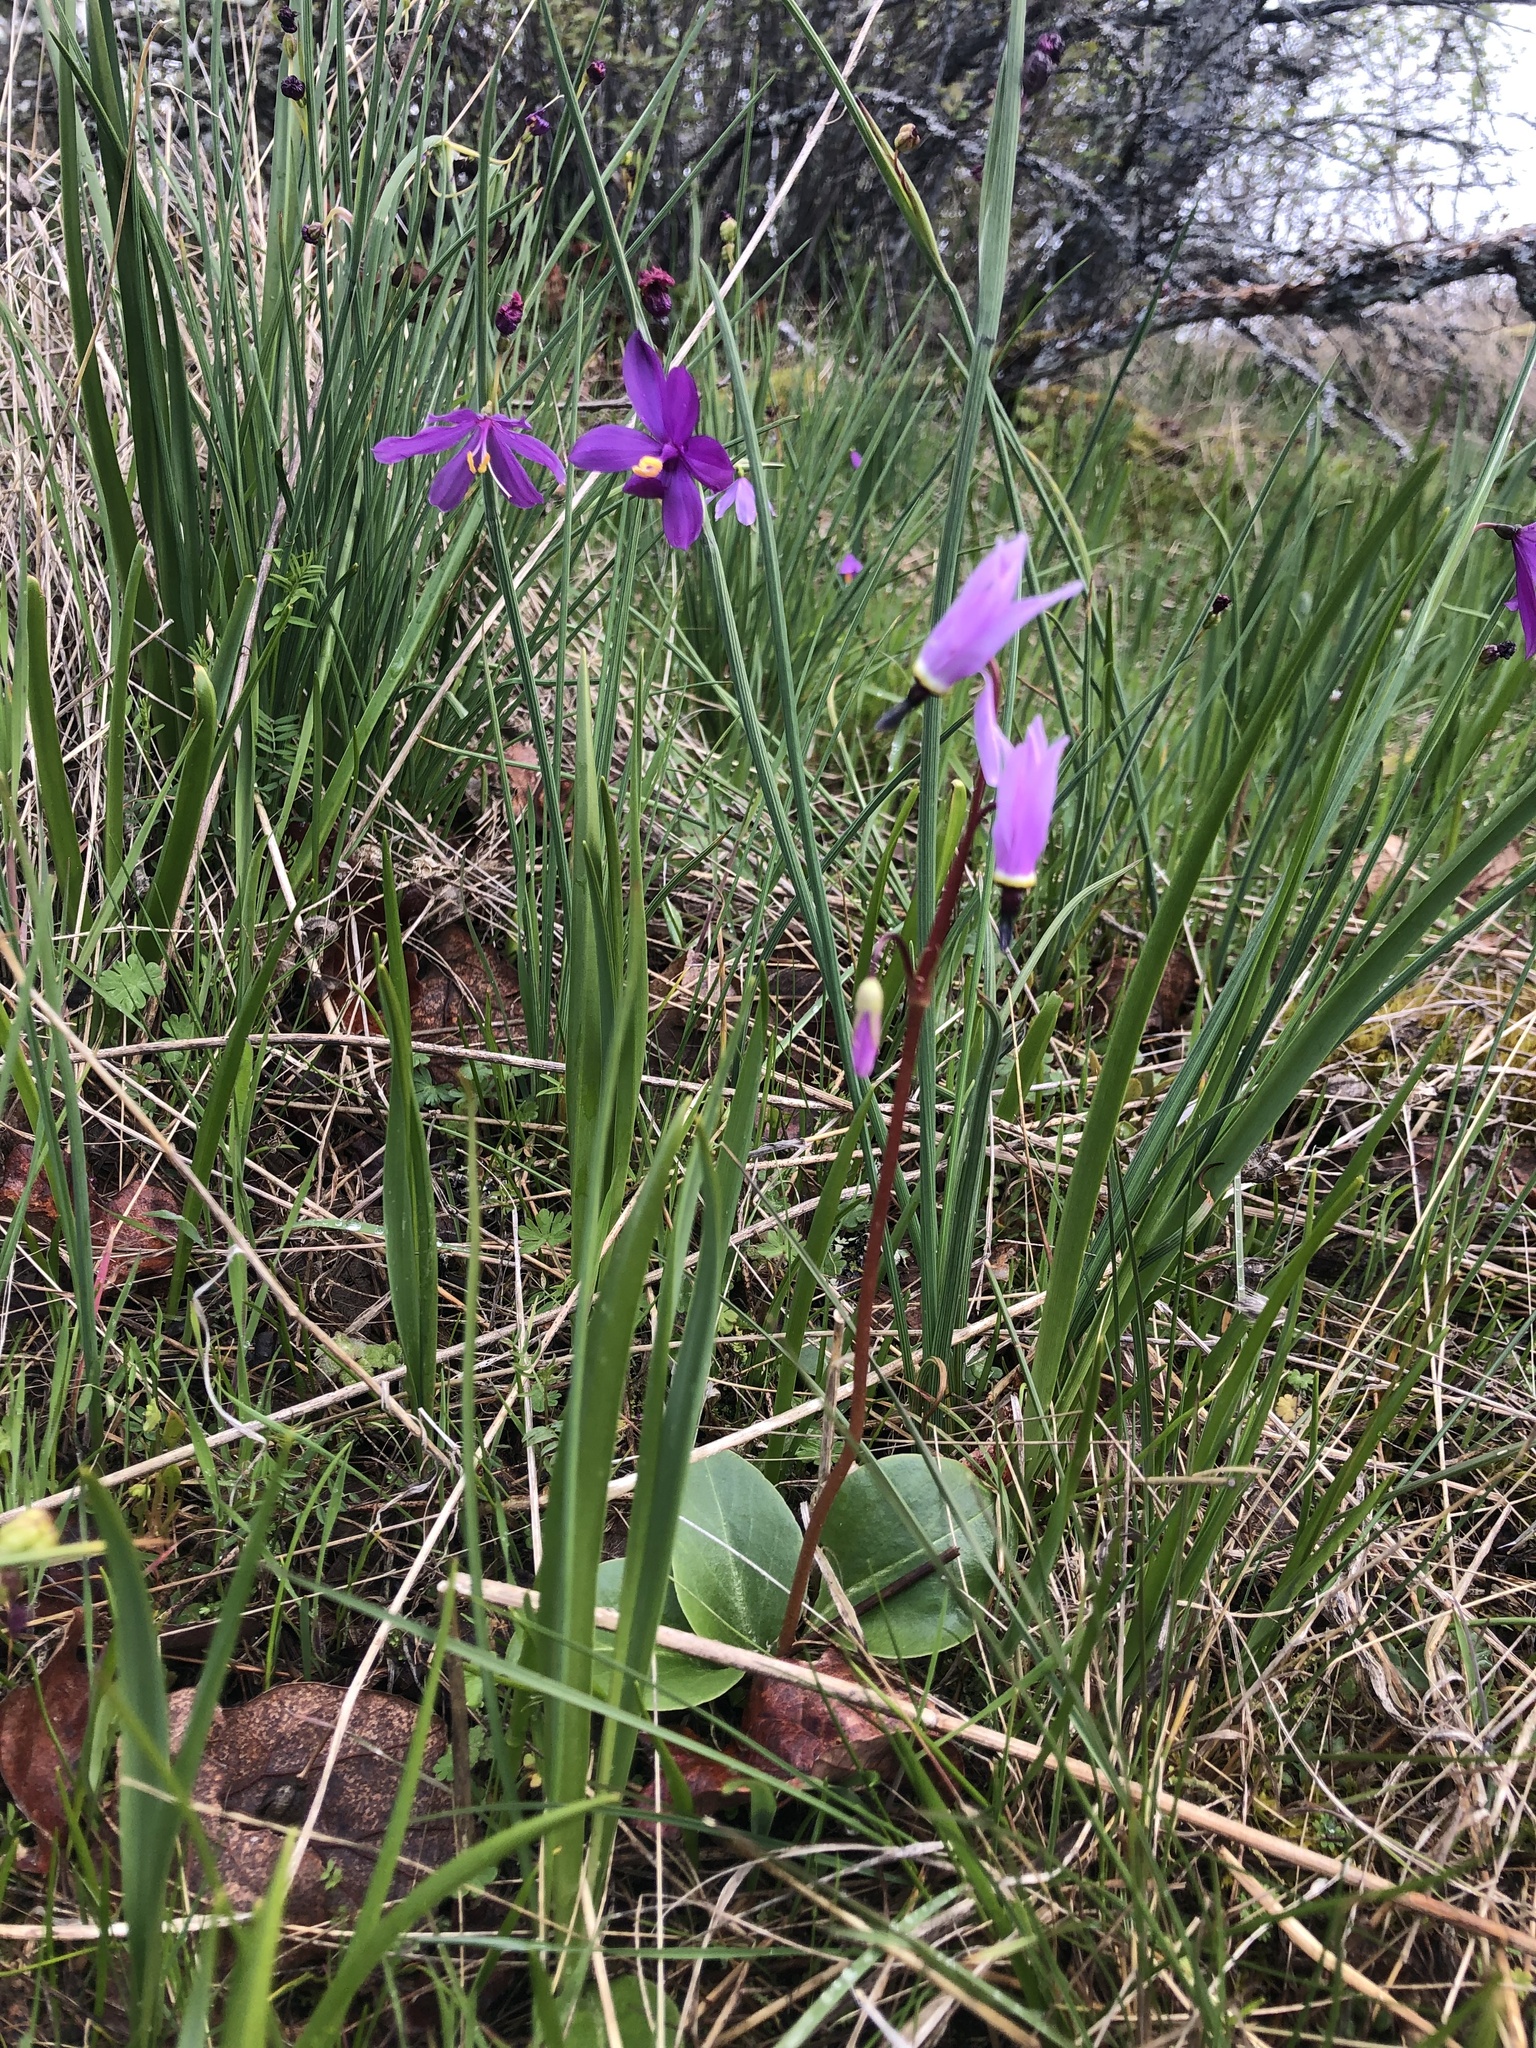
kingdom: Plantae
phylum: Tracheophyta
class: Magnoliopsida
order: Ericales
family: Primulaceae
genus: Dodecatheon
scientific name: Dodecatheon hendersonii
